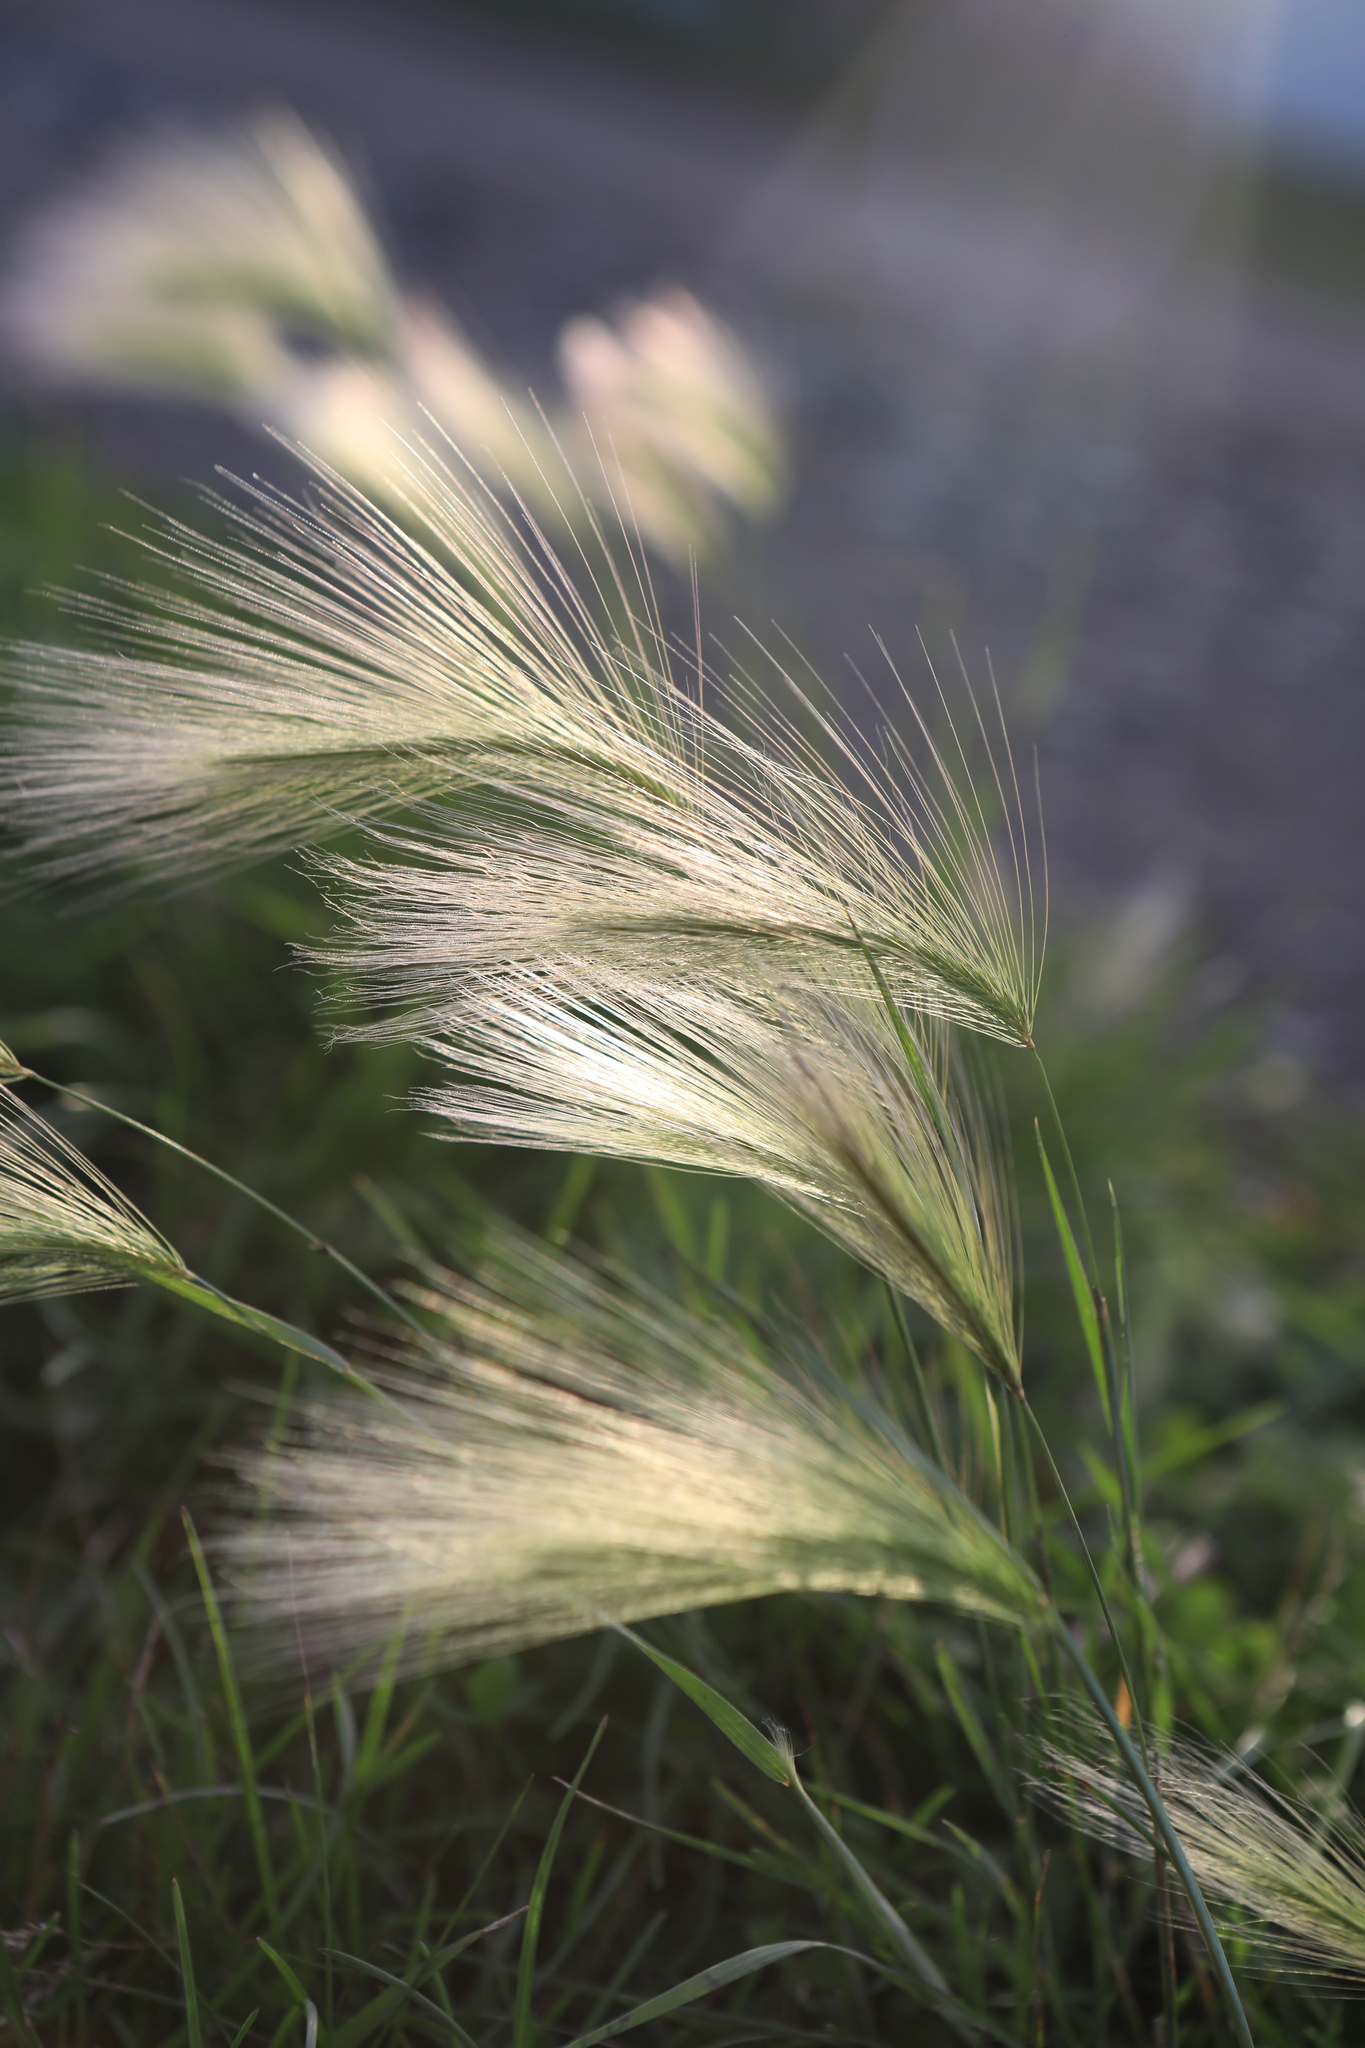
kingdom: Plantae
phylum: Tracheophyta
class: Liliopsida
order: Poales
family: Poaceae
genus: Hordeum
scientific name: Hordeum jubatum
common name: Foxtail barley
